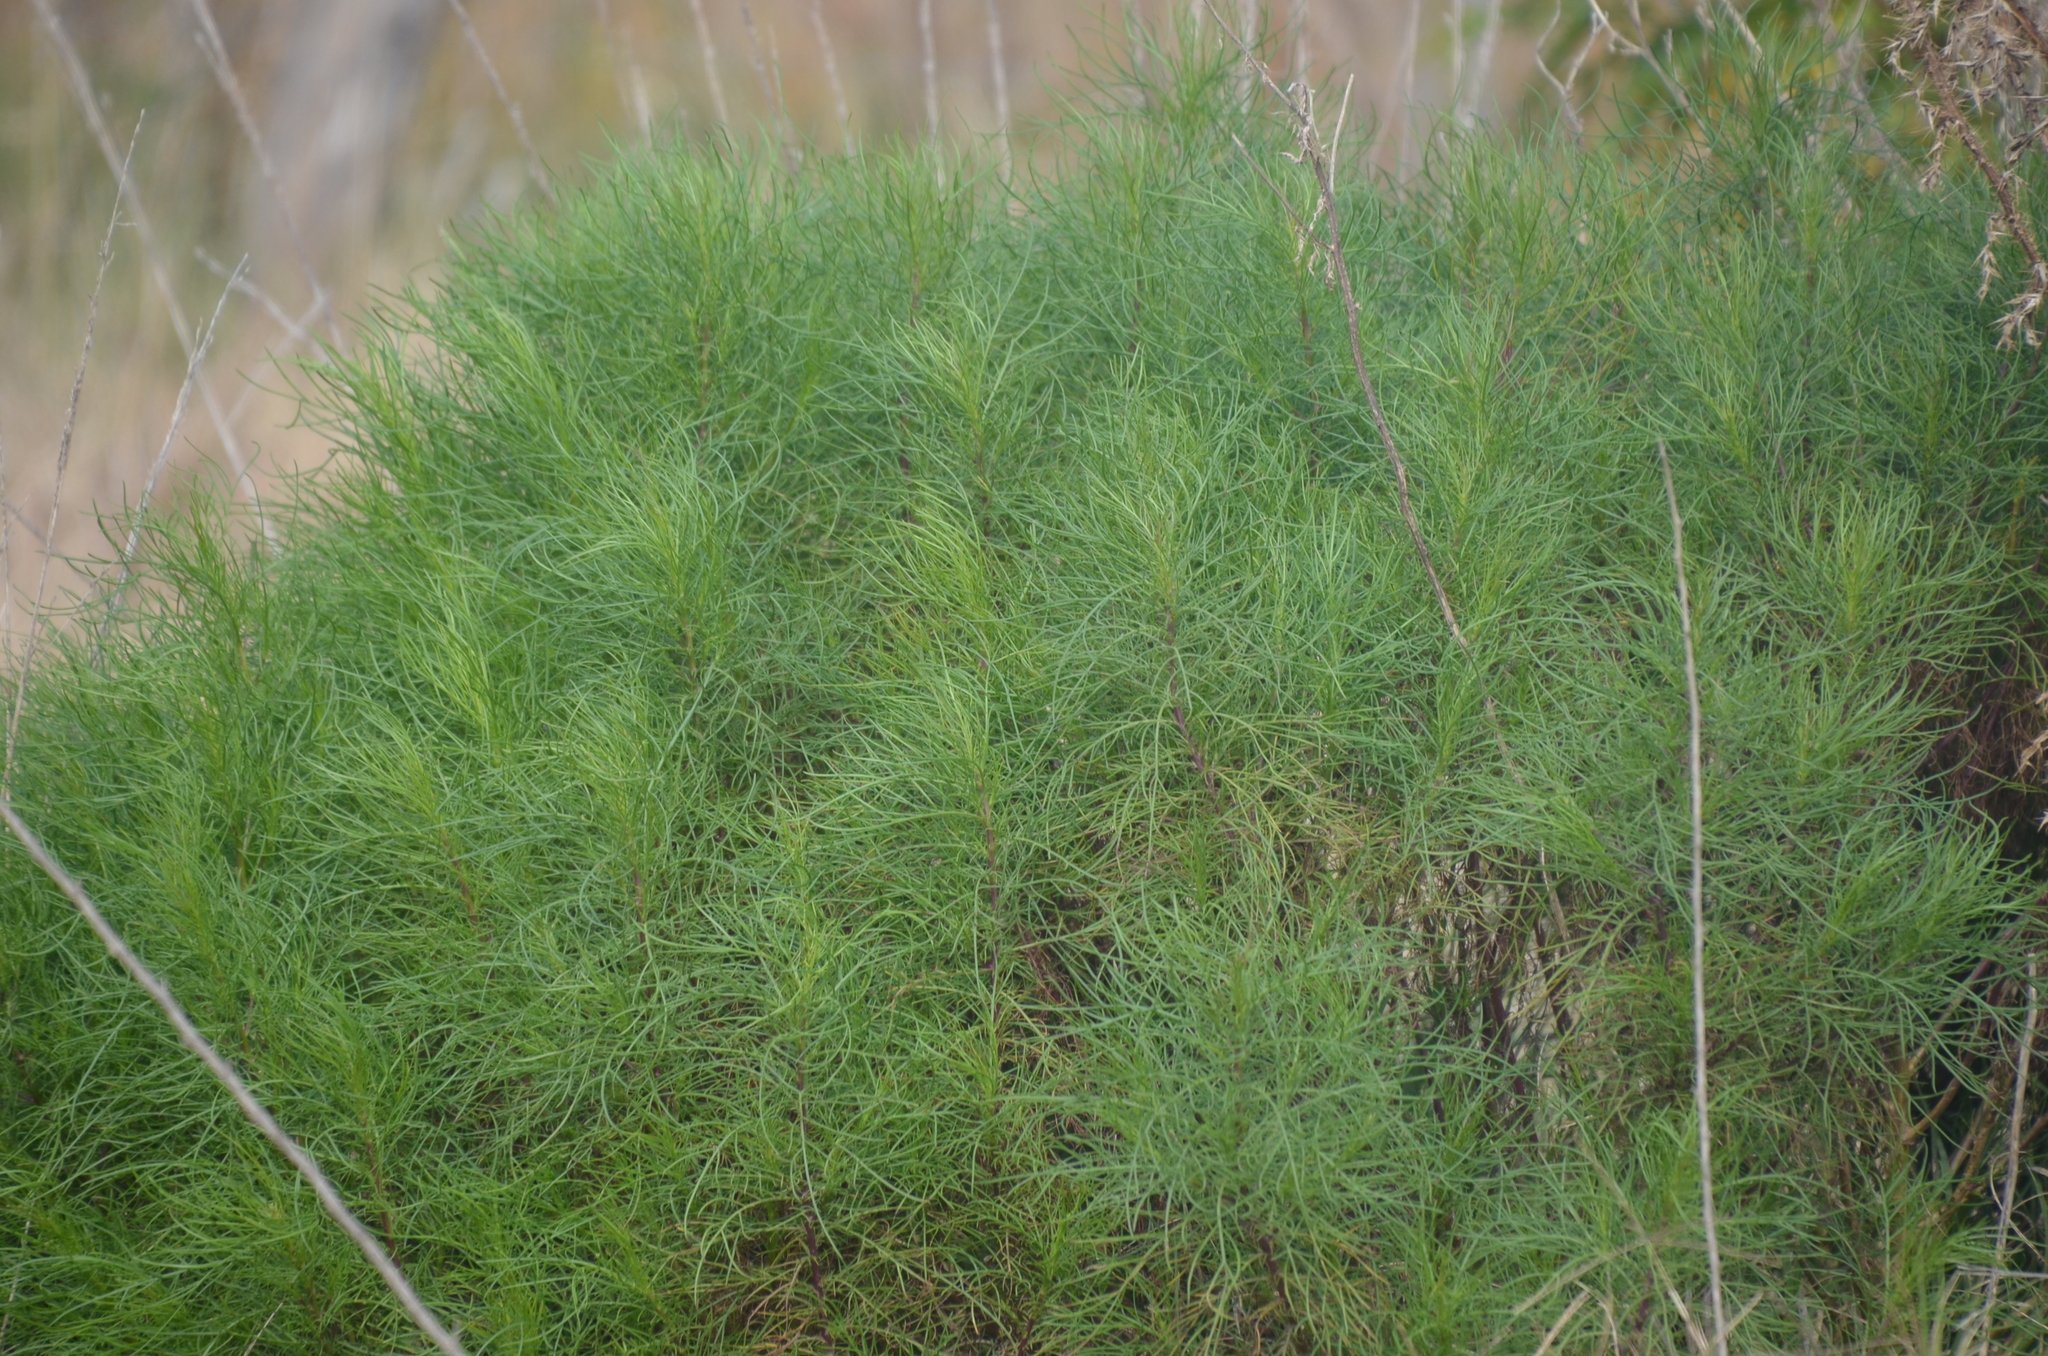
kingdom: Plantae
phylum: Tracheophyta
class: Magnoliopsida
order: Asterales
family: Asteraceae
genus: Senecio
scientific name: Senecio pampeanus
